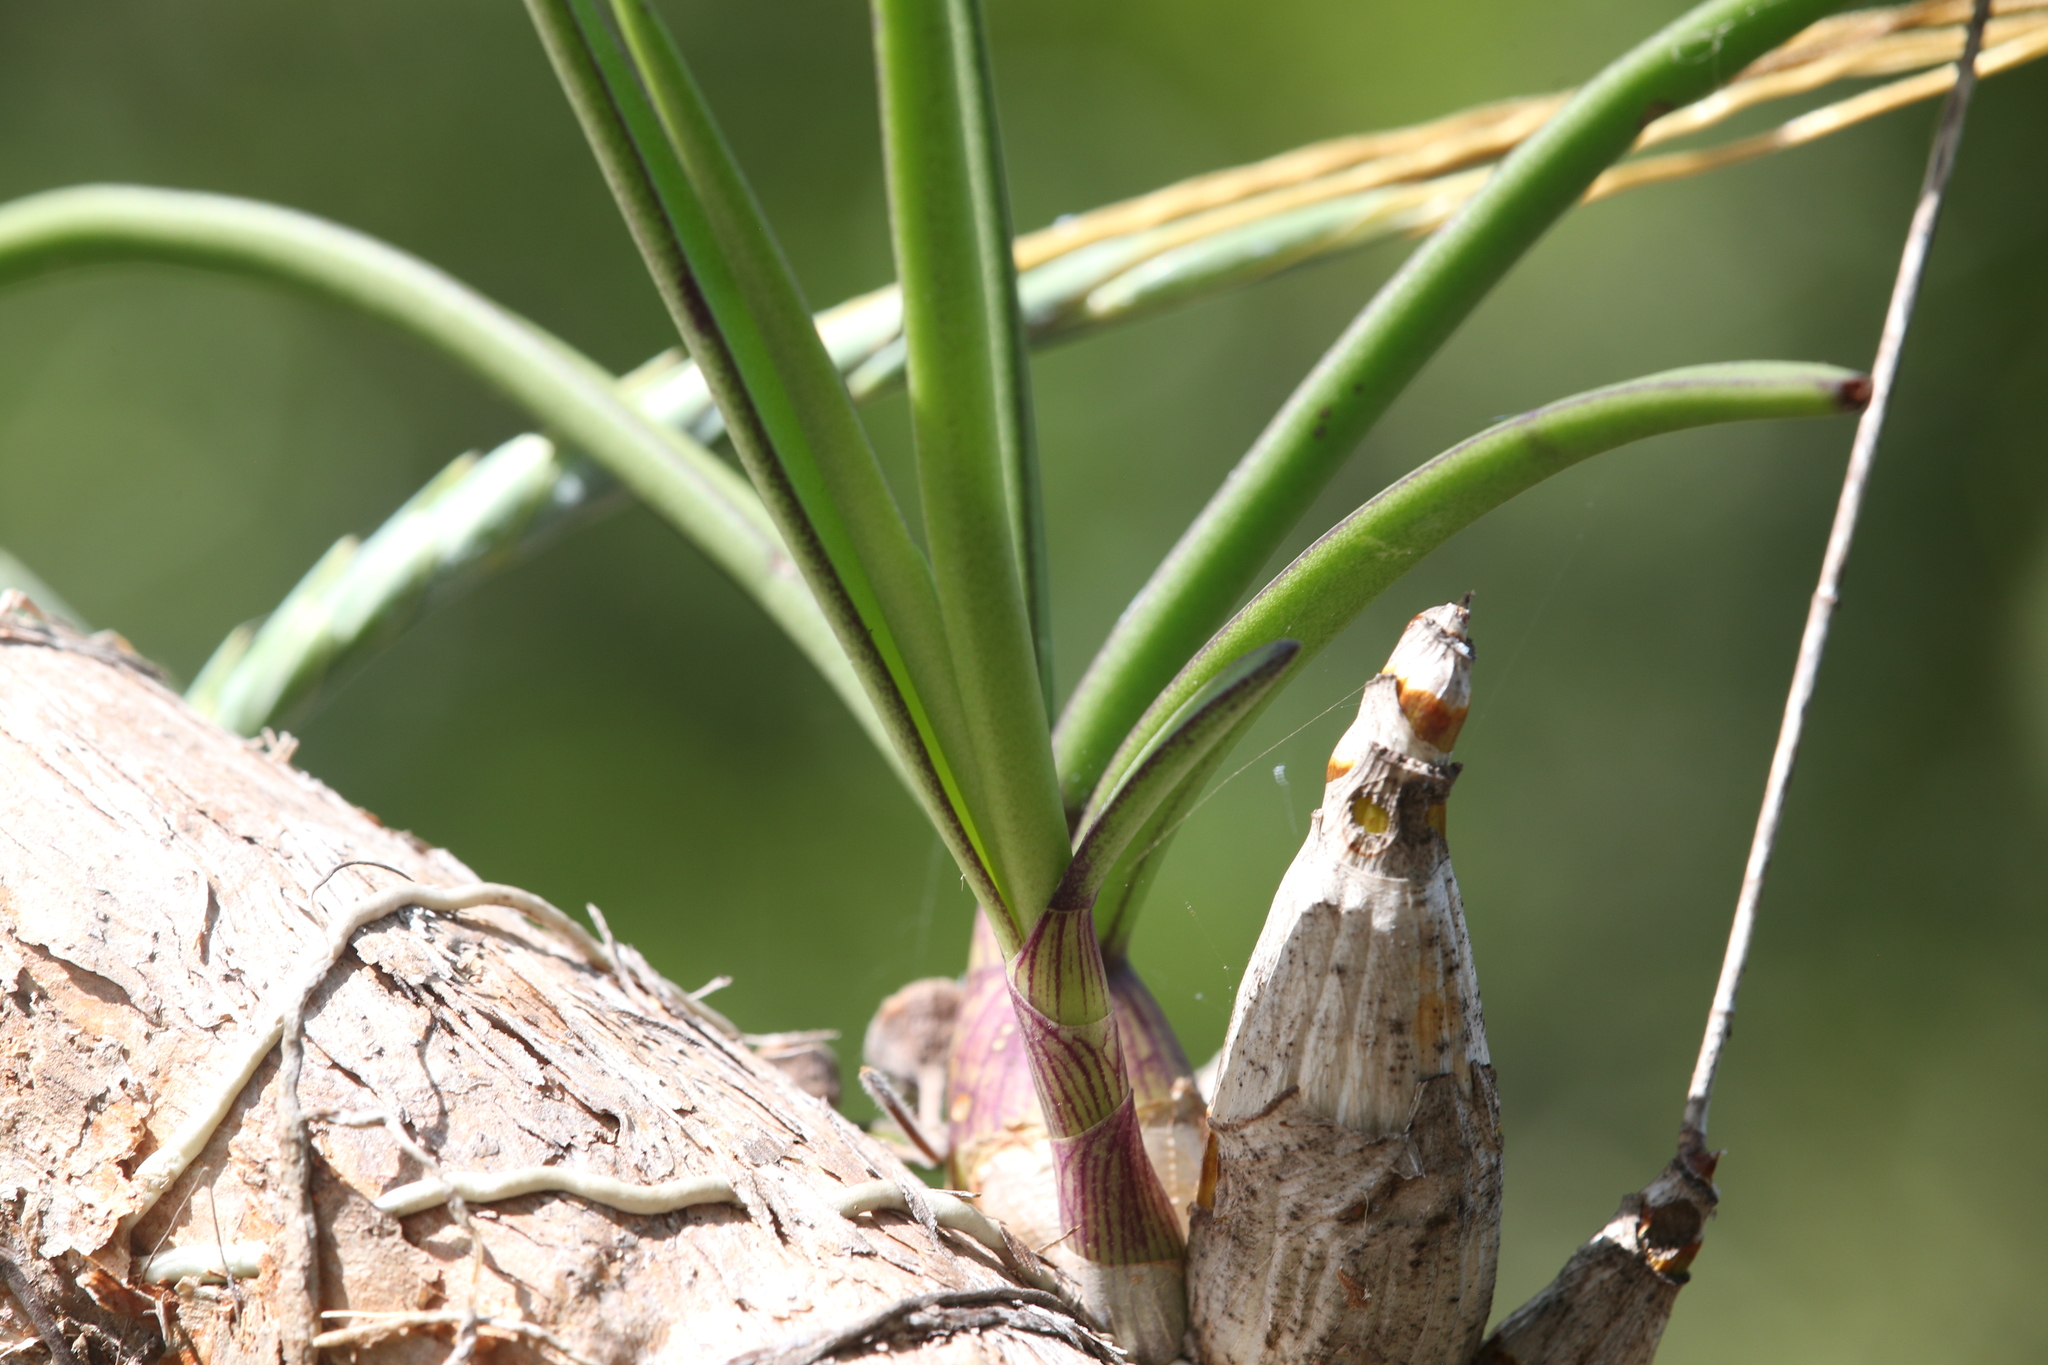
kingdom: Plantae
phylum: Tracheophyta
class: Liliopsida
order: Asparagales
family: Orchidaceae
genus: Dendrobium
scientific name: Dendrobium canaliculatum
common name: Tea tree orchid
